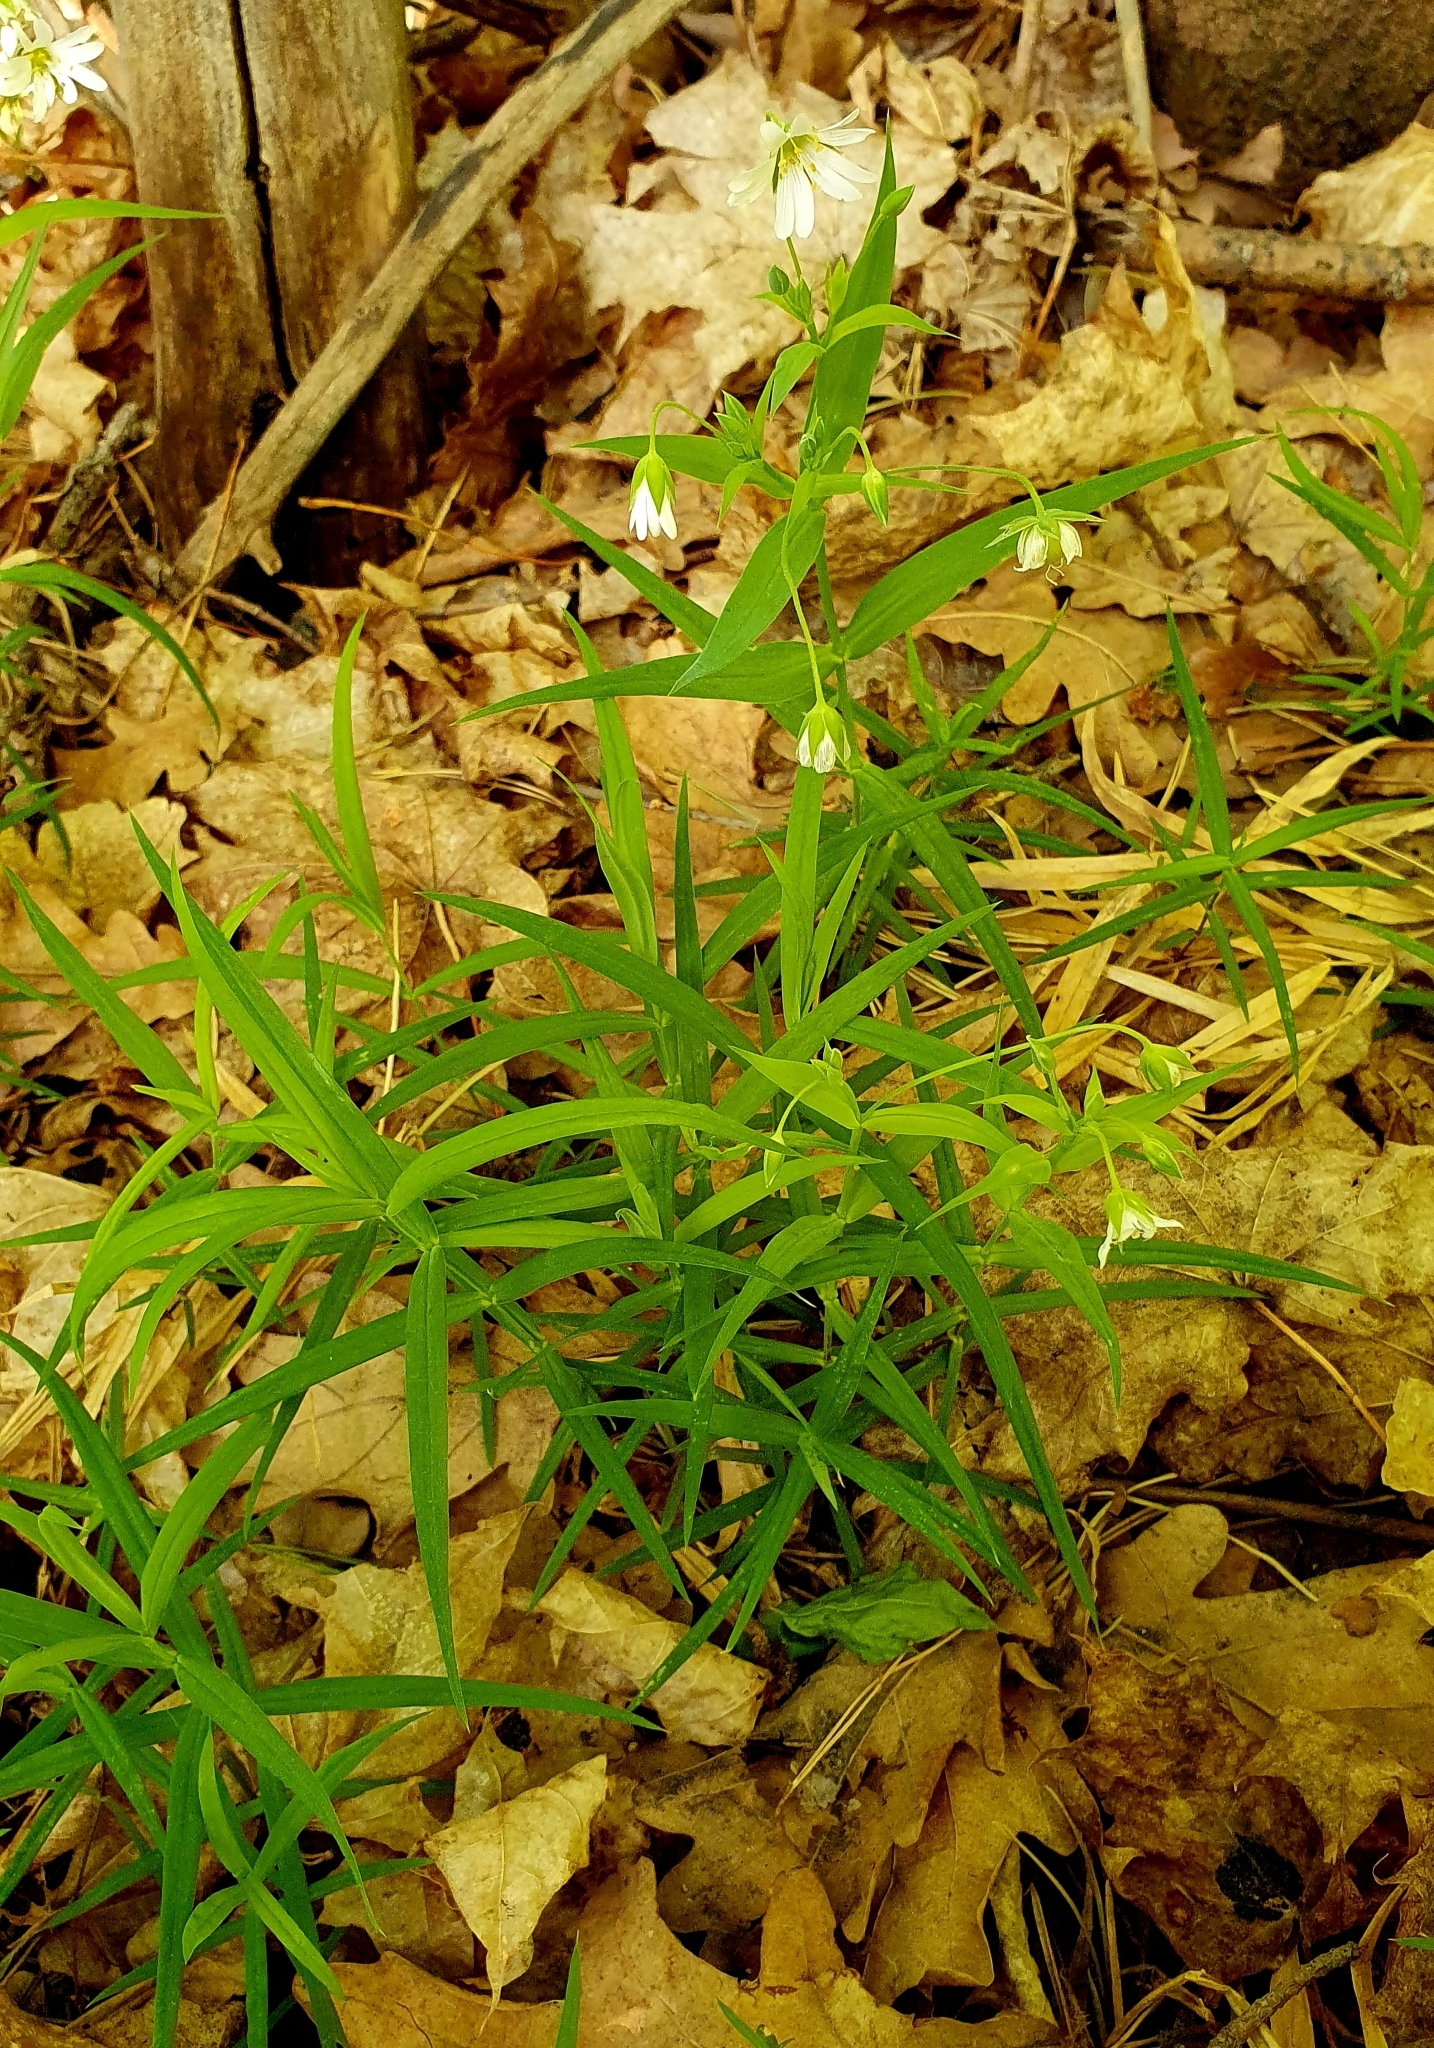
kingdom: Plantae
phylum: Tracheophyta
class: Magnoliopsida
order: Caryophyllales
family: Caryophyllaceae
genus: Rabelera
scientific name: Rabelera holostea
